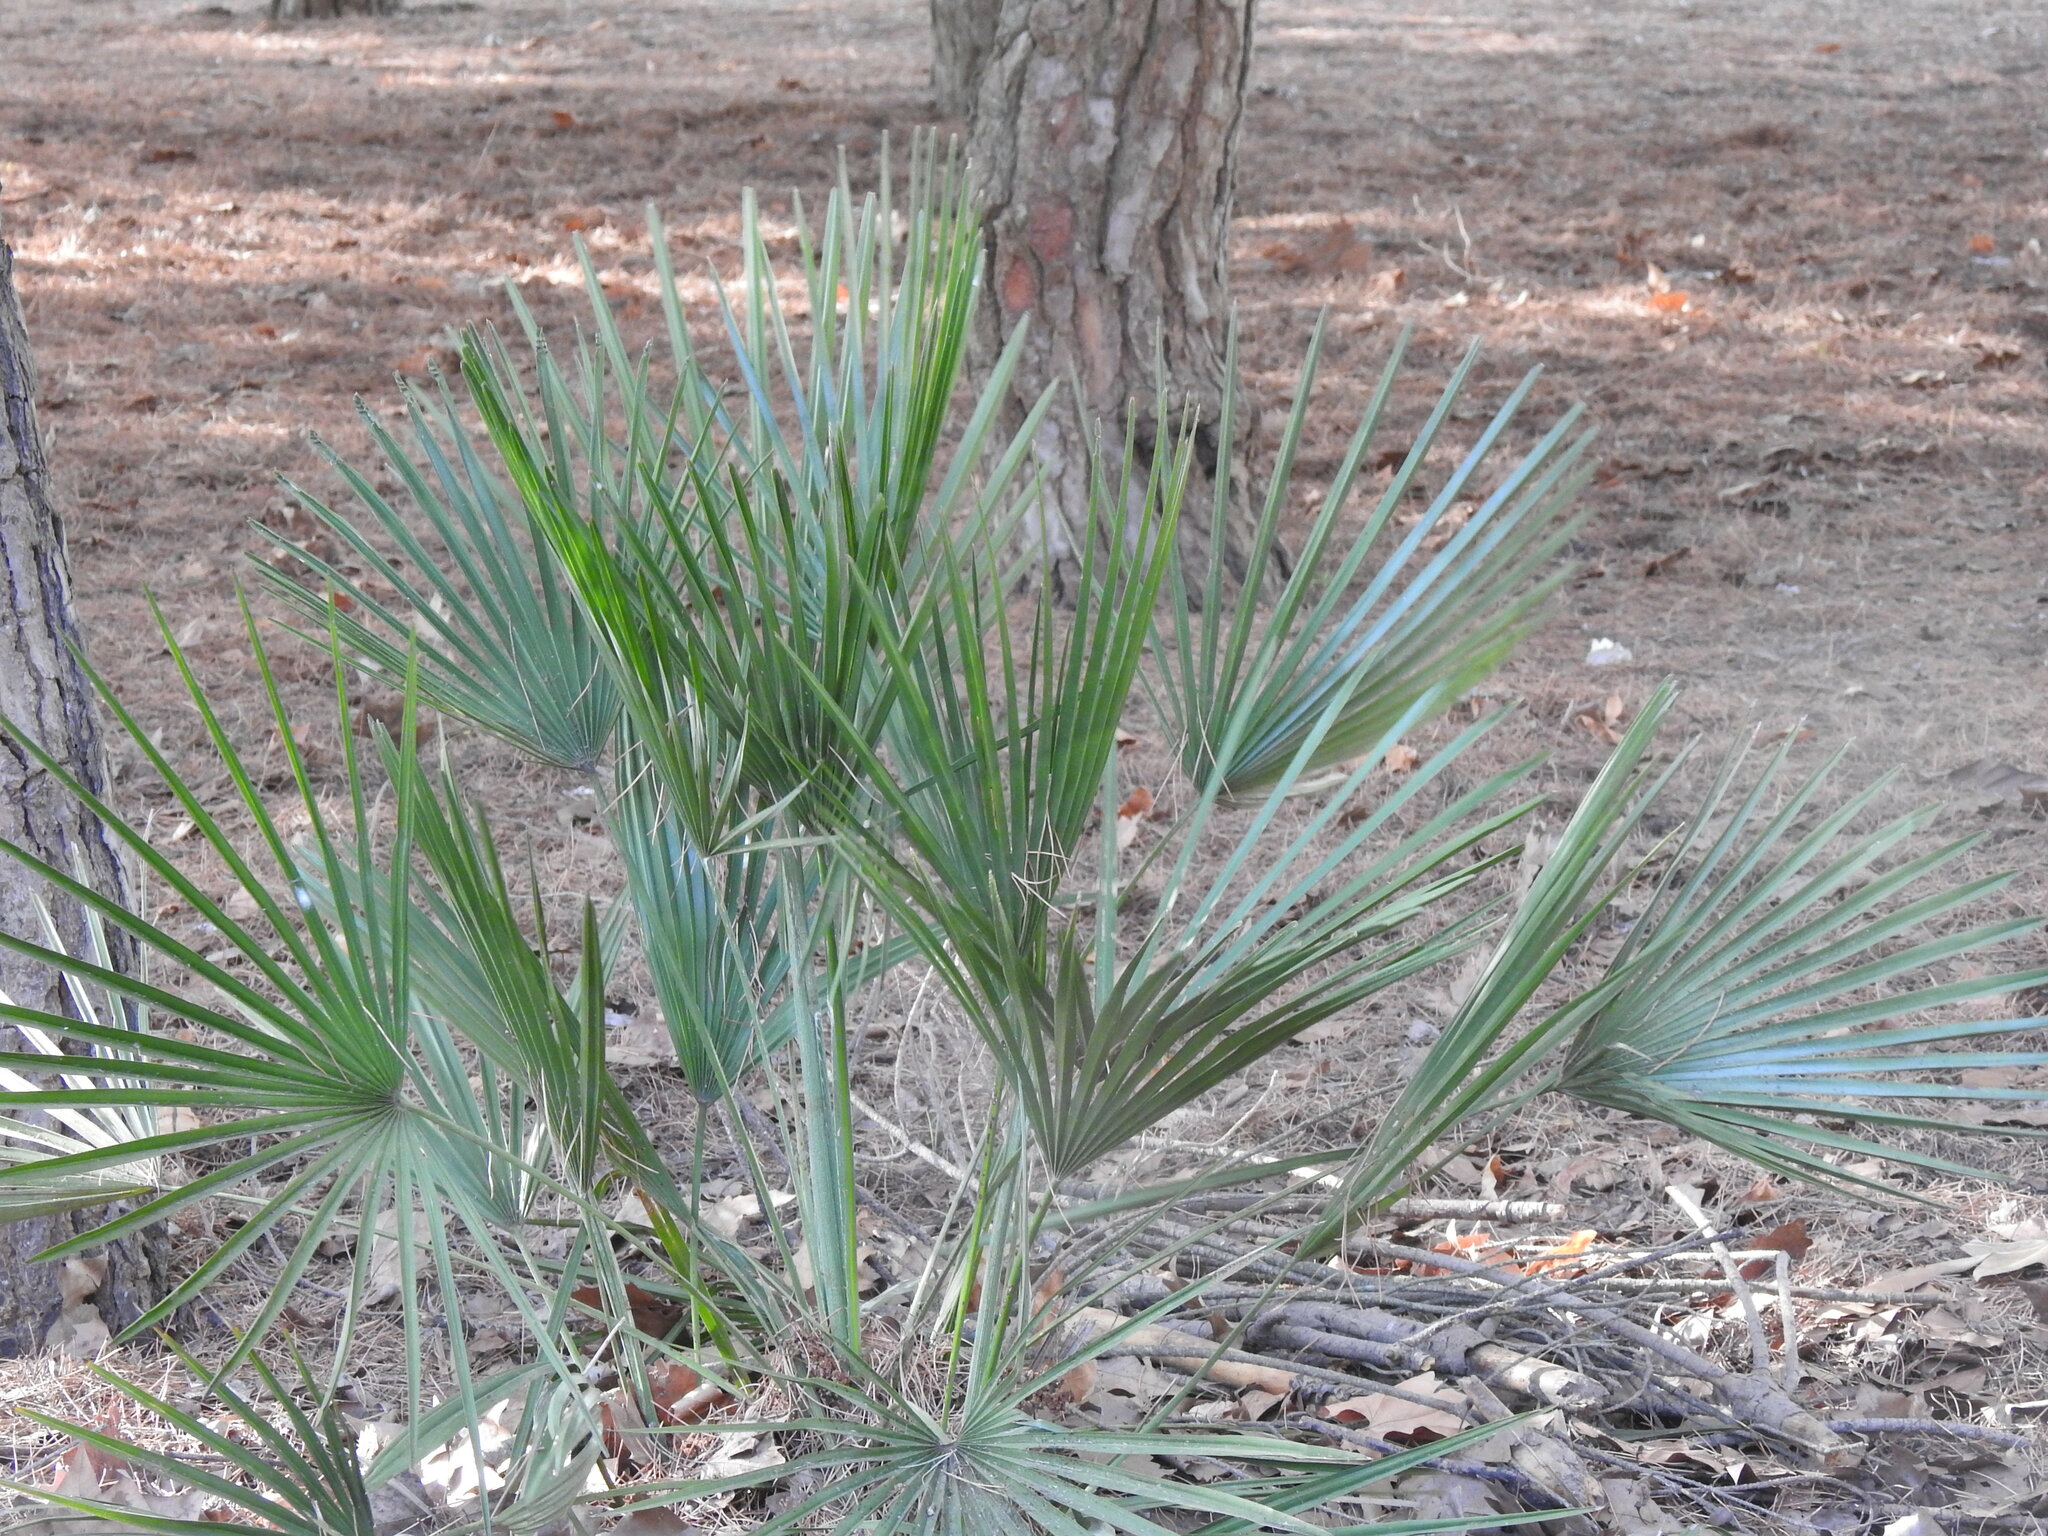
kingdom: Plantae
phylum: Tracheophyta
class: Liliopsida
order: Arecales
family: Arecaceae
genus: Chamaerops
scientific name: Chamaerops humilis
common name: Dwarf fan palm
